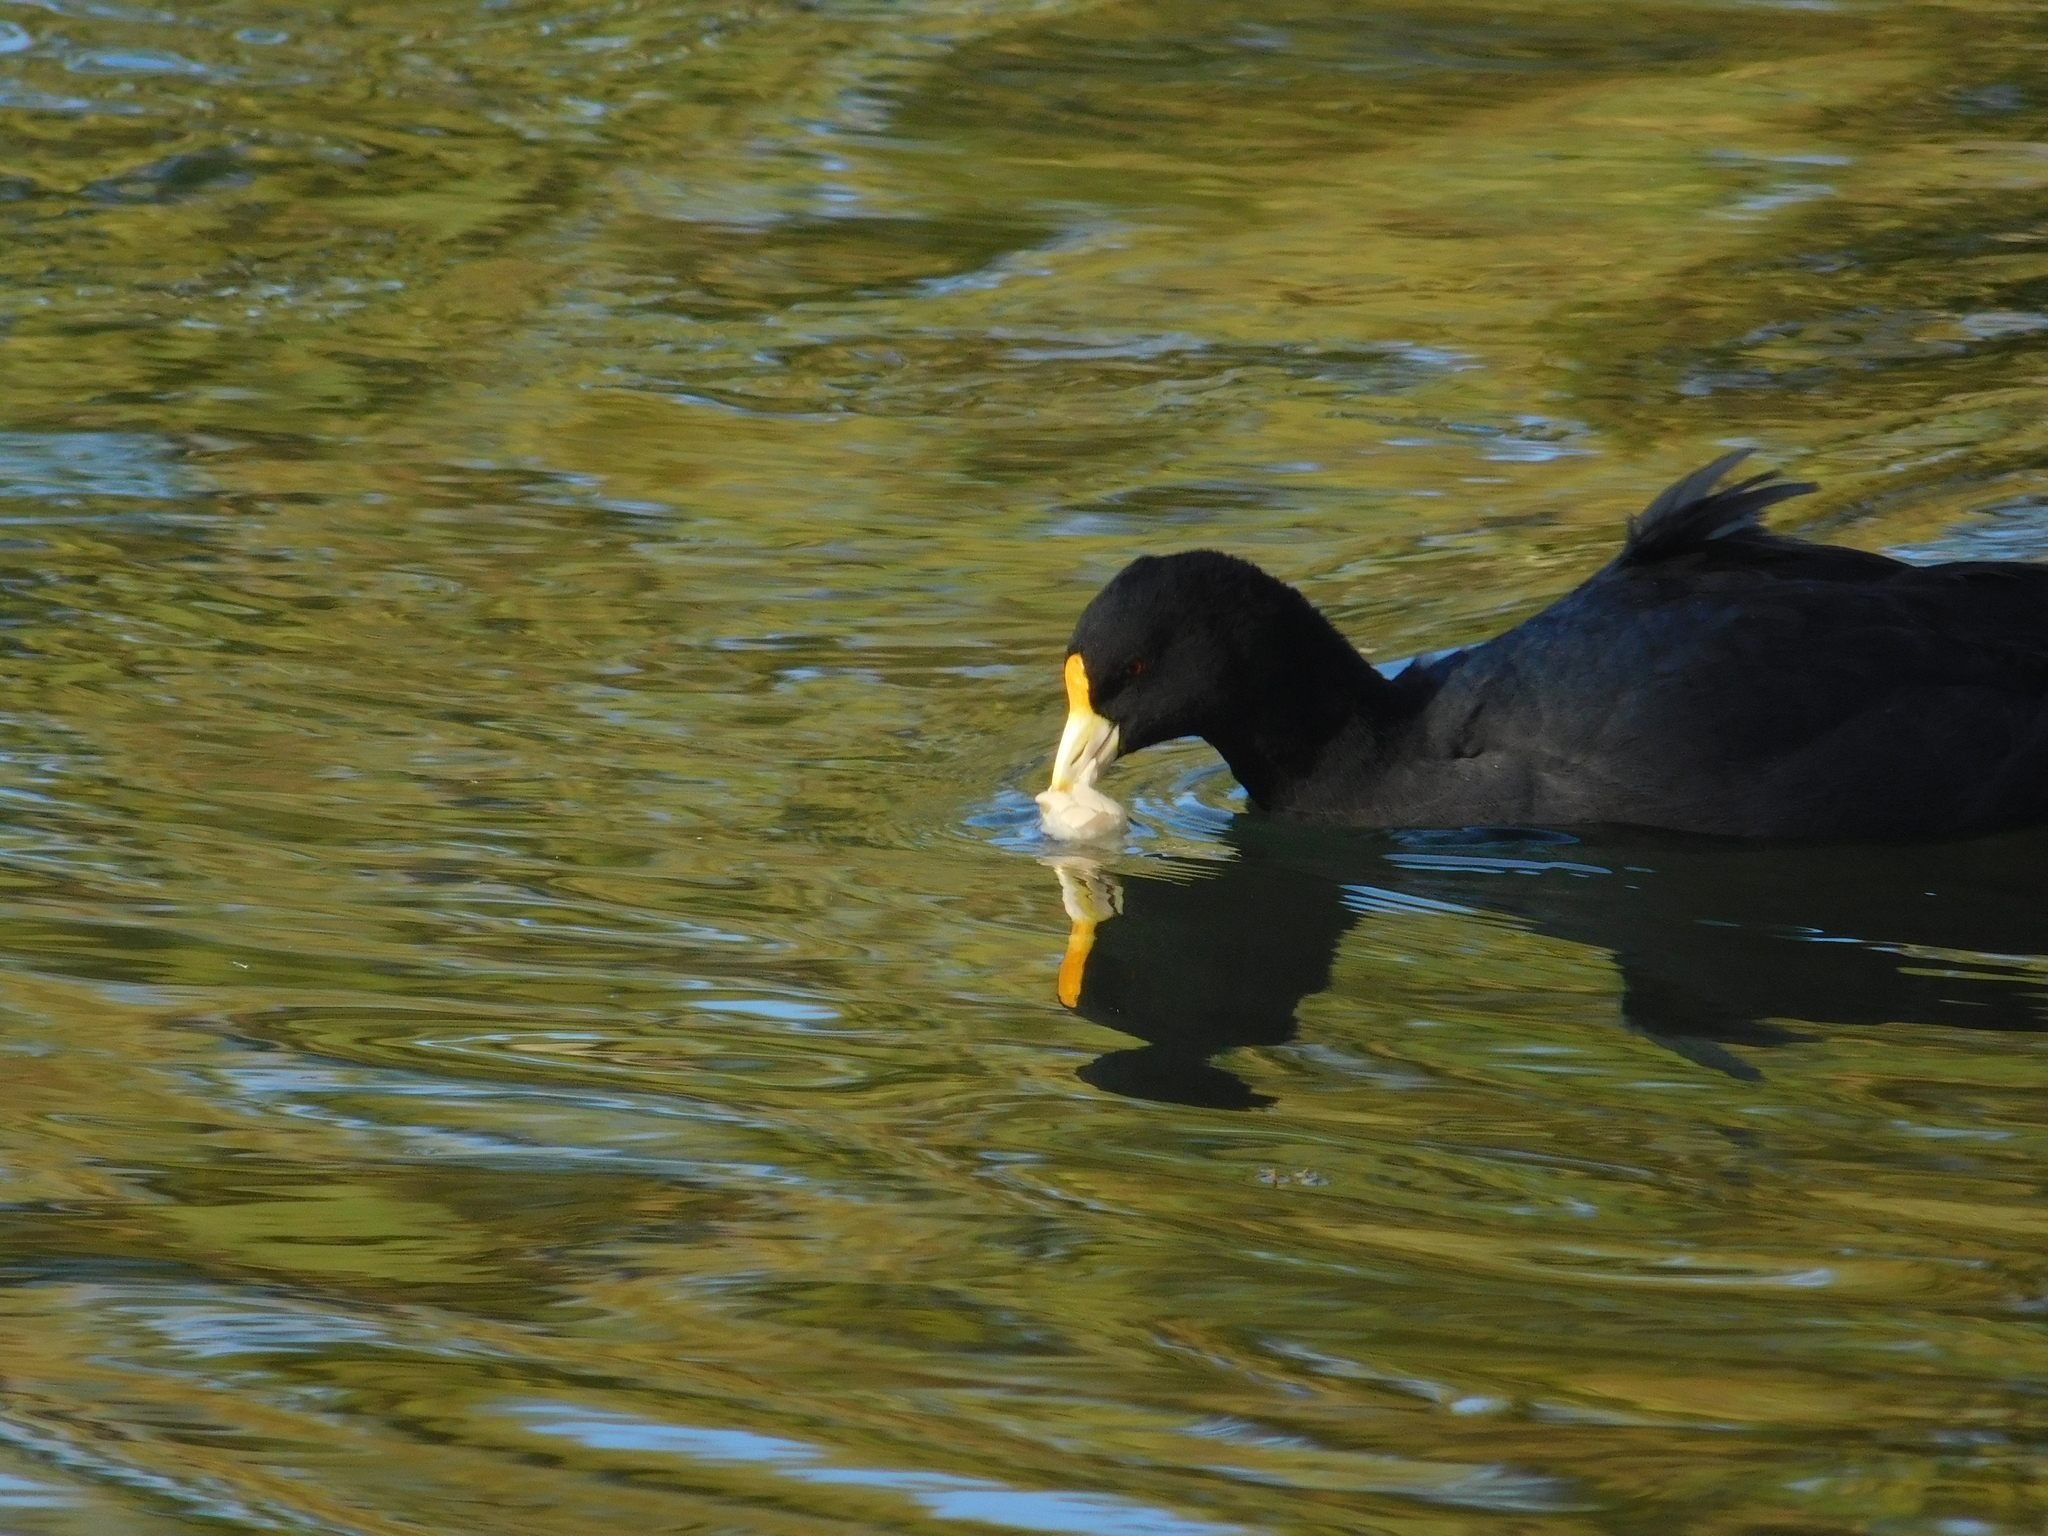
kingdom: Animalia
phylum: Chordata
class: Aves
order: Gruiformes
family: Rallidae
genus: Fulica
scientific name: Fulica leucoptera
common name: White-winged coot
